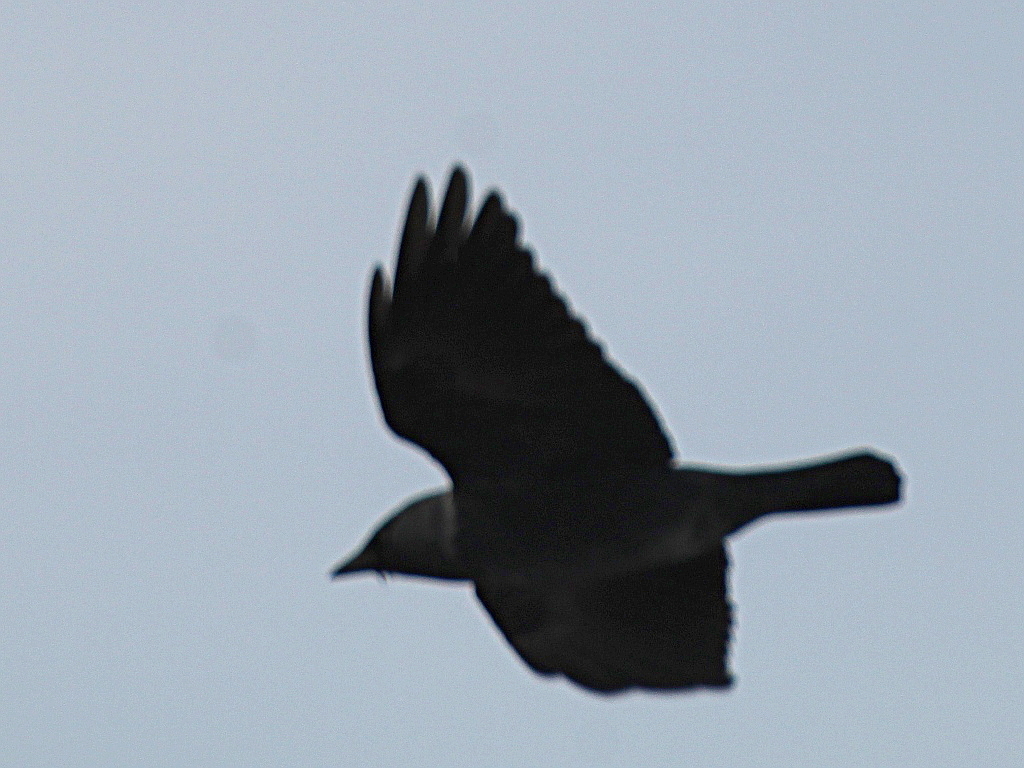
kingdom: Animalia
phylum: Chordata
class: Aves
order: Passeriformes
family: Corvidae
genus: Coloeus
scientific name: Coloeus monedula
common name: Western jackdaw
